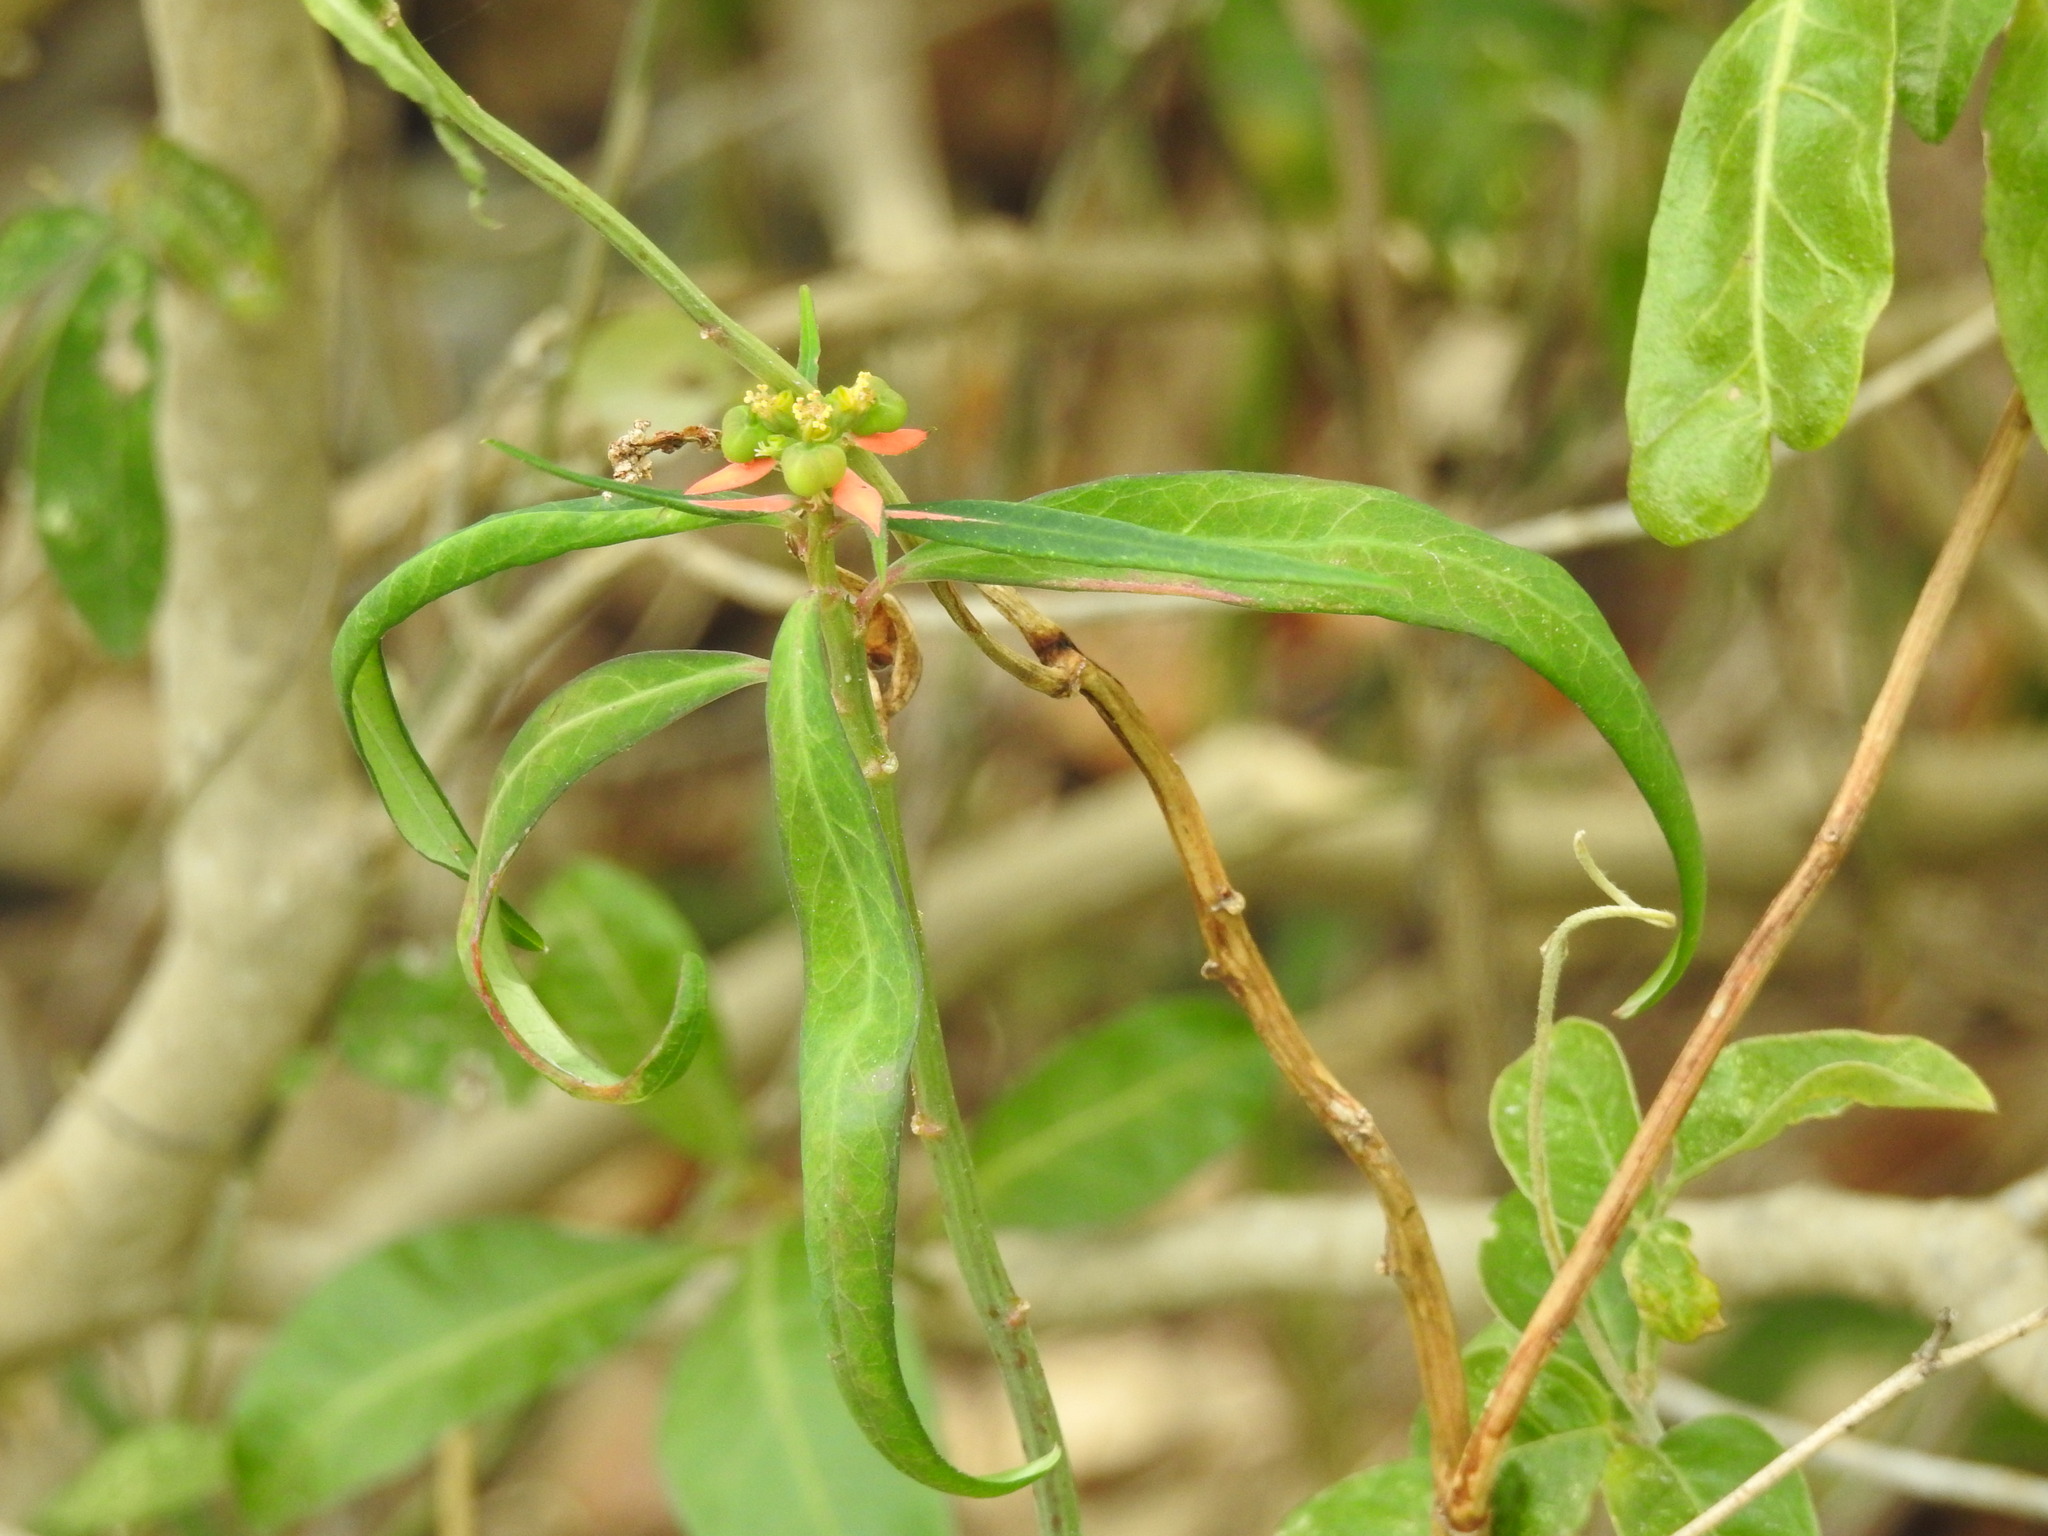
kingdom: Plantae
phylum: Tracheophyta
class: Magnoliopsida
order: Malpighiales
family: Euphorbiaceae
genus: Euphorbia
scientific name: Euphorbia heterophylla
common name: Mexican fireplant
